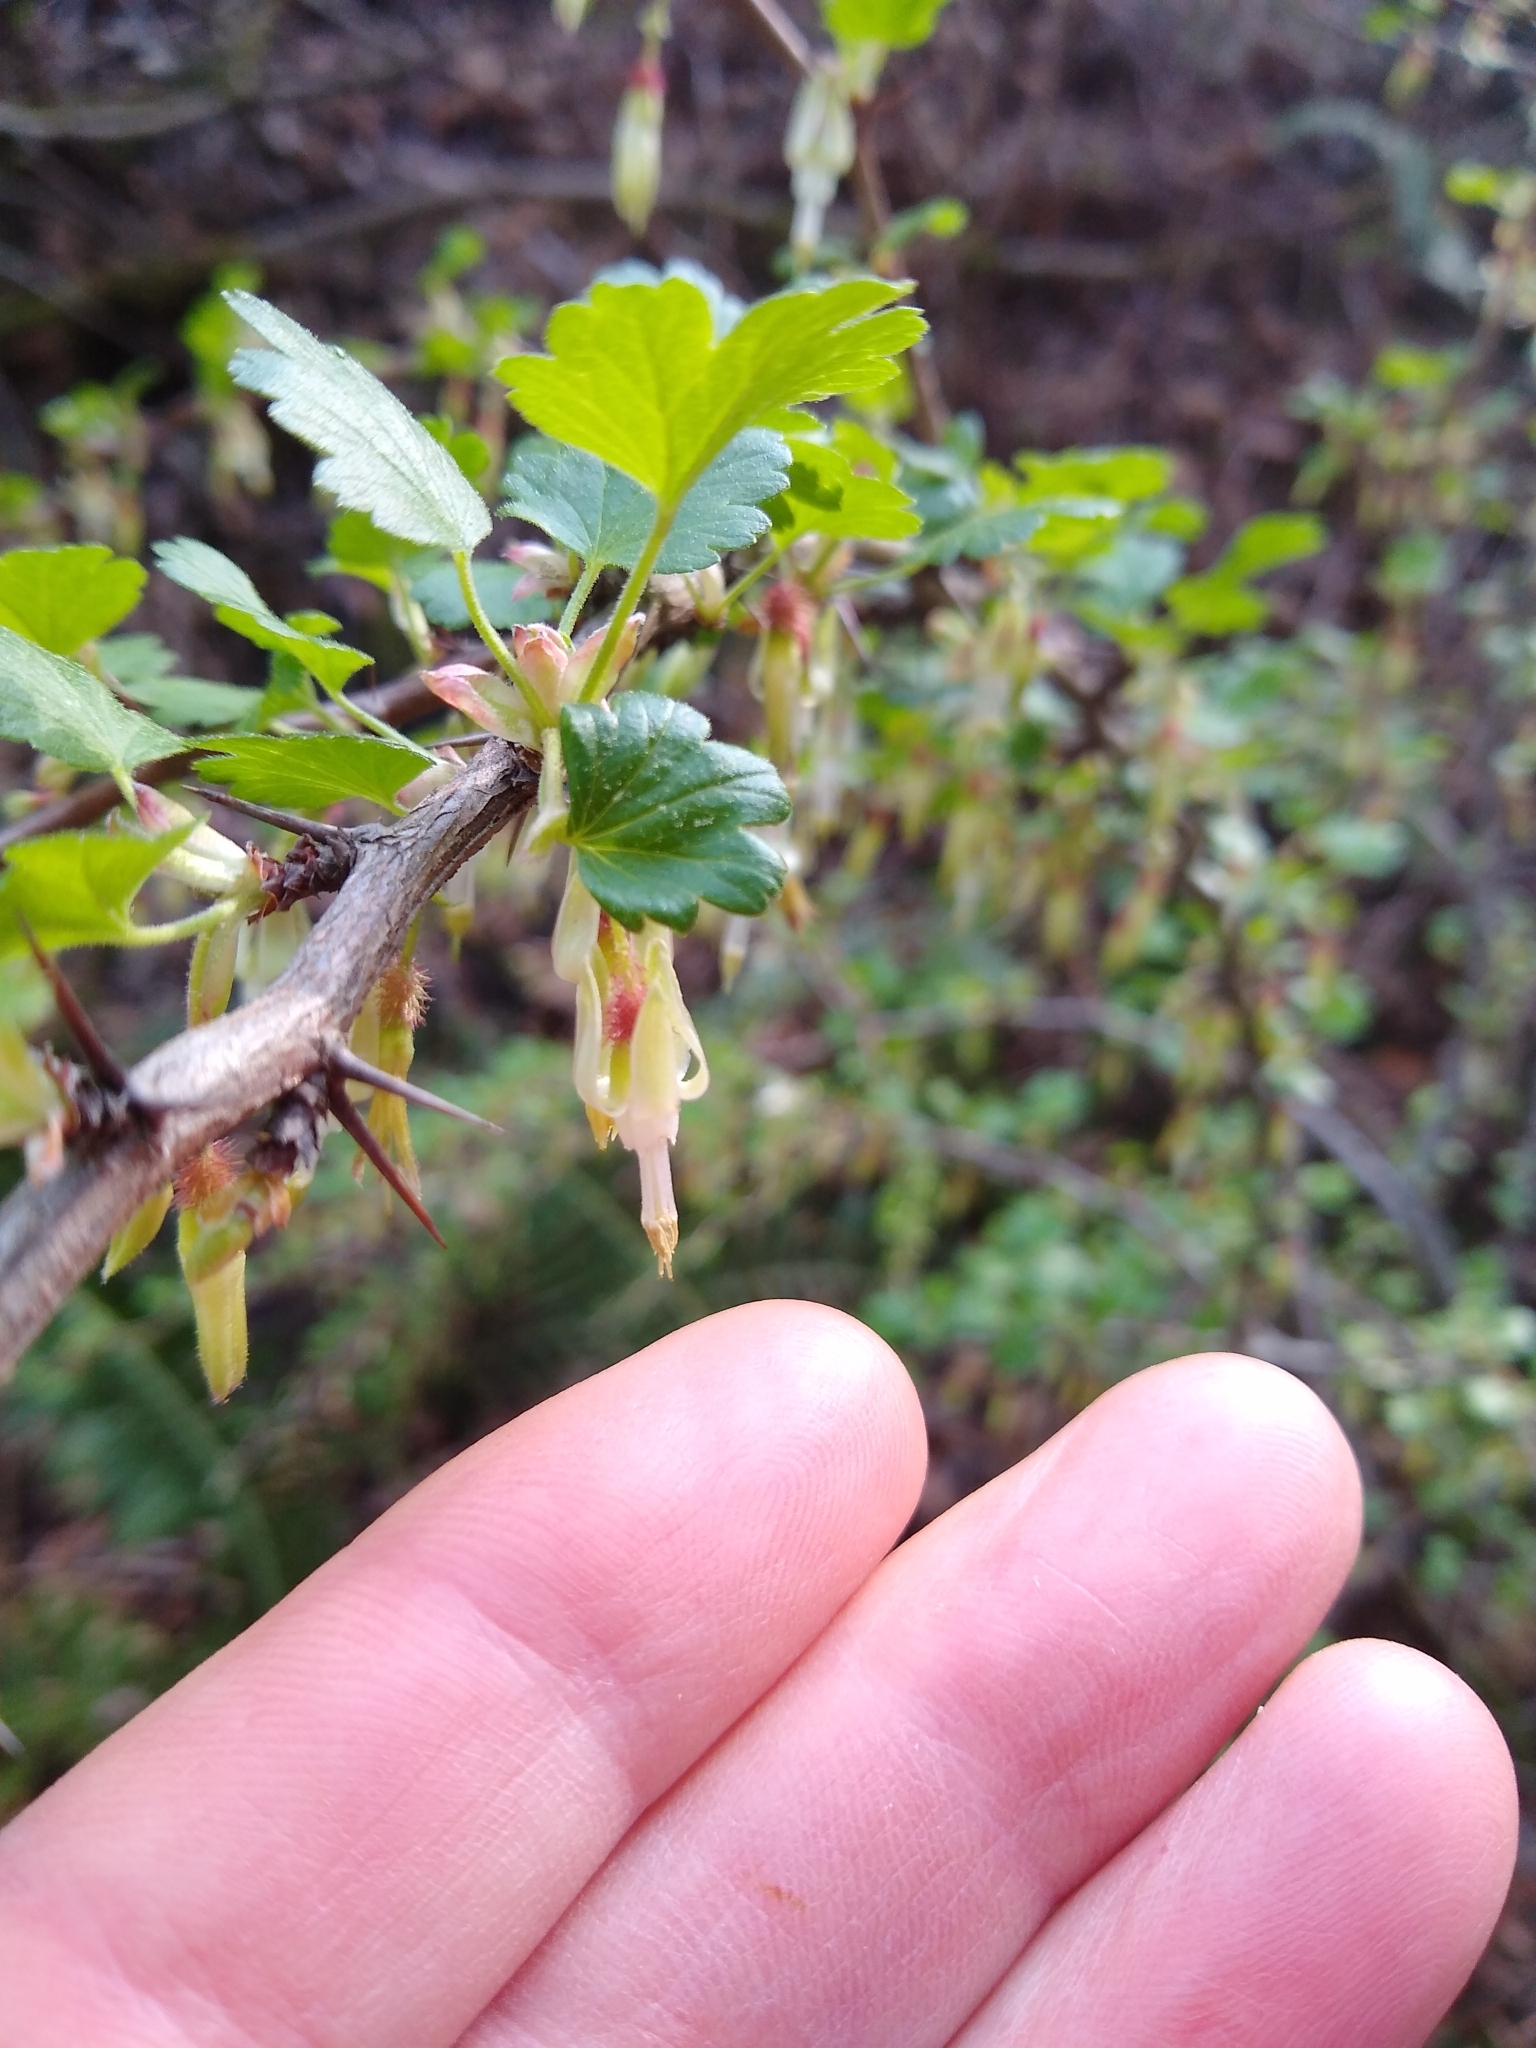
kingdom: Plantae
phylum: Tracheophyta
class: Magnoliopsida
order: Saxifragales
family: Grossulariaceae
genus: Ribes
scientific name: Ribes californicum
